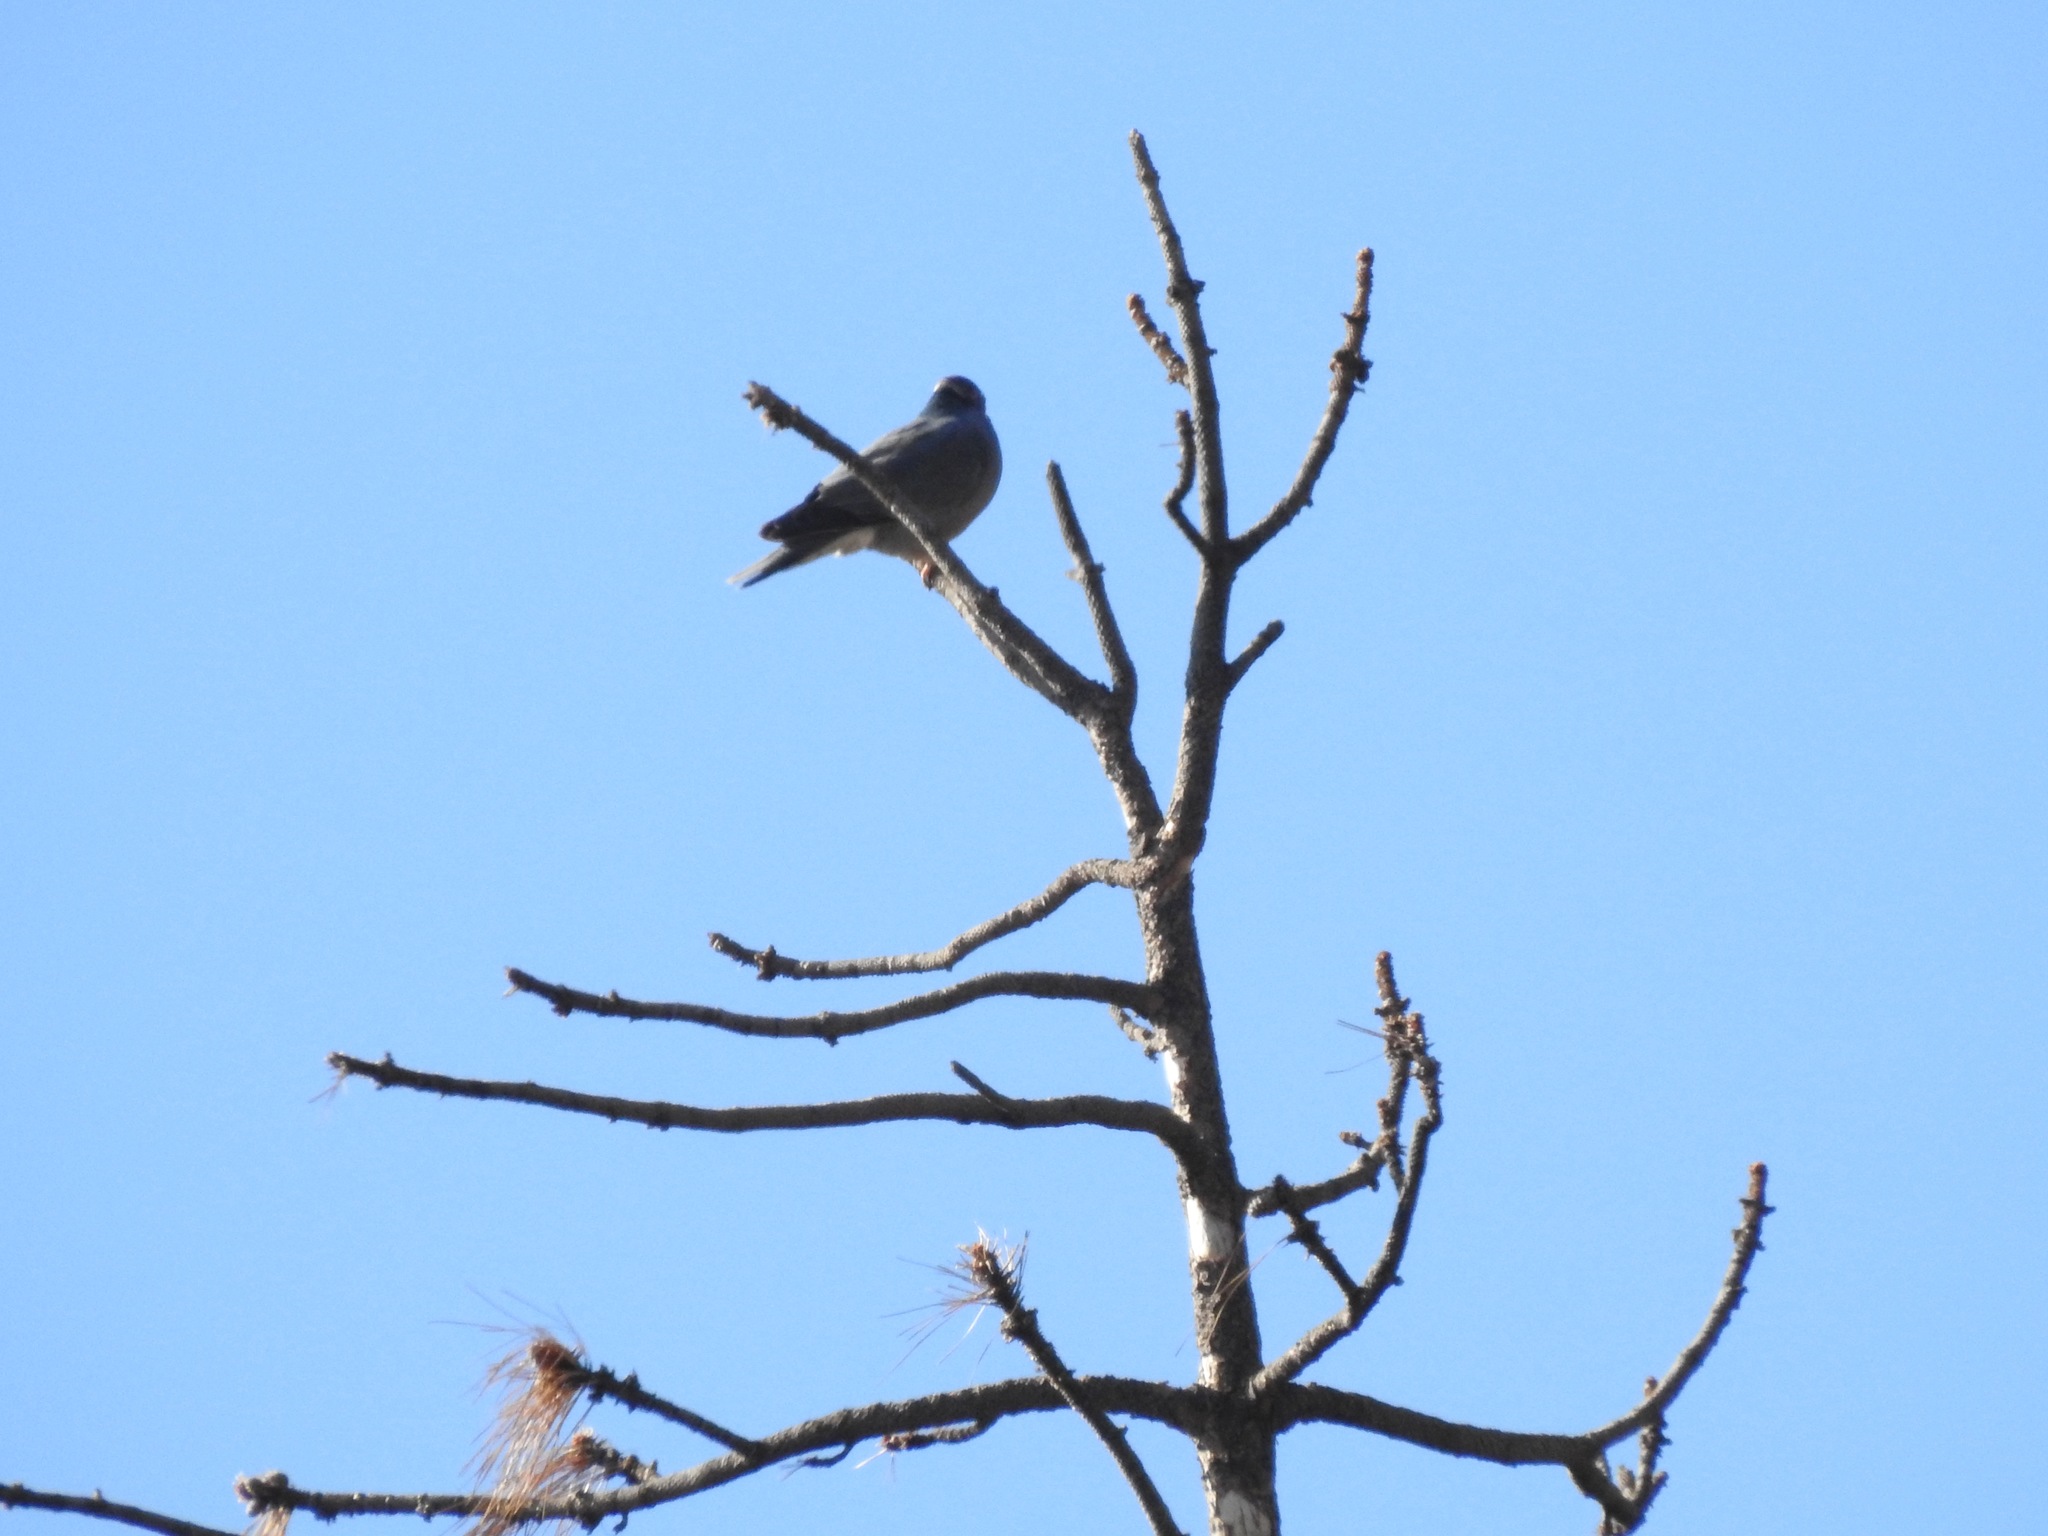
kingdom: Animalia
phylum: Chordata
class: Aves
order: Columbiformes
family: Columbidae
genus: Patagioenas
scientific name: Patagioenas fasciata
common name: Band-tailed pigeon
